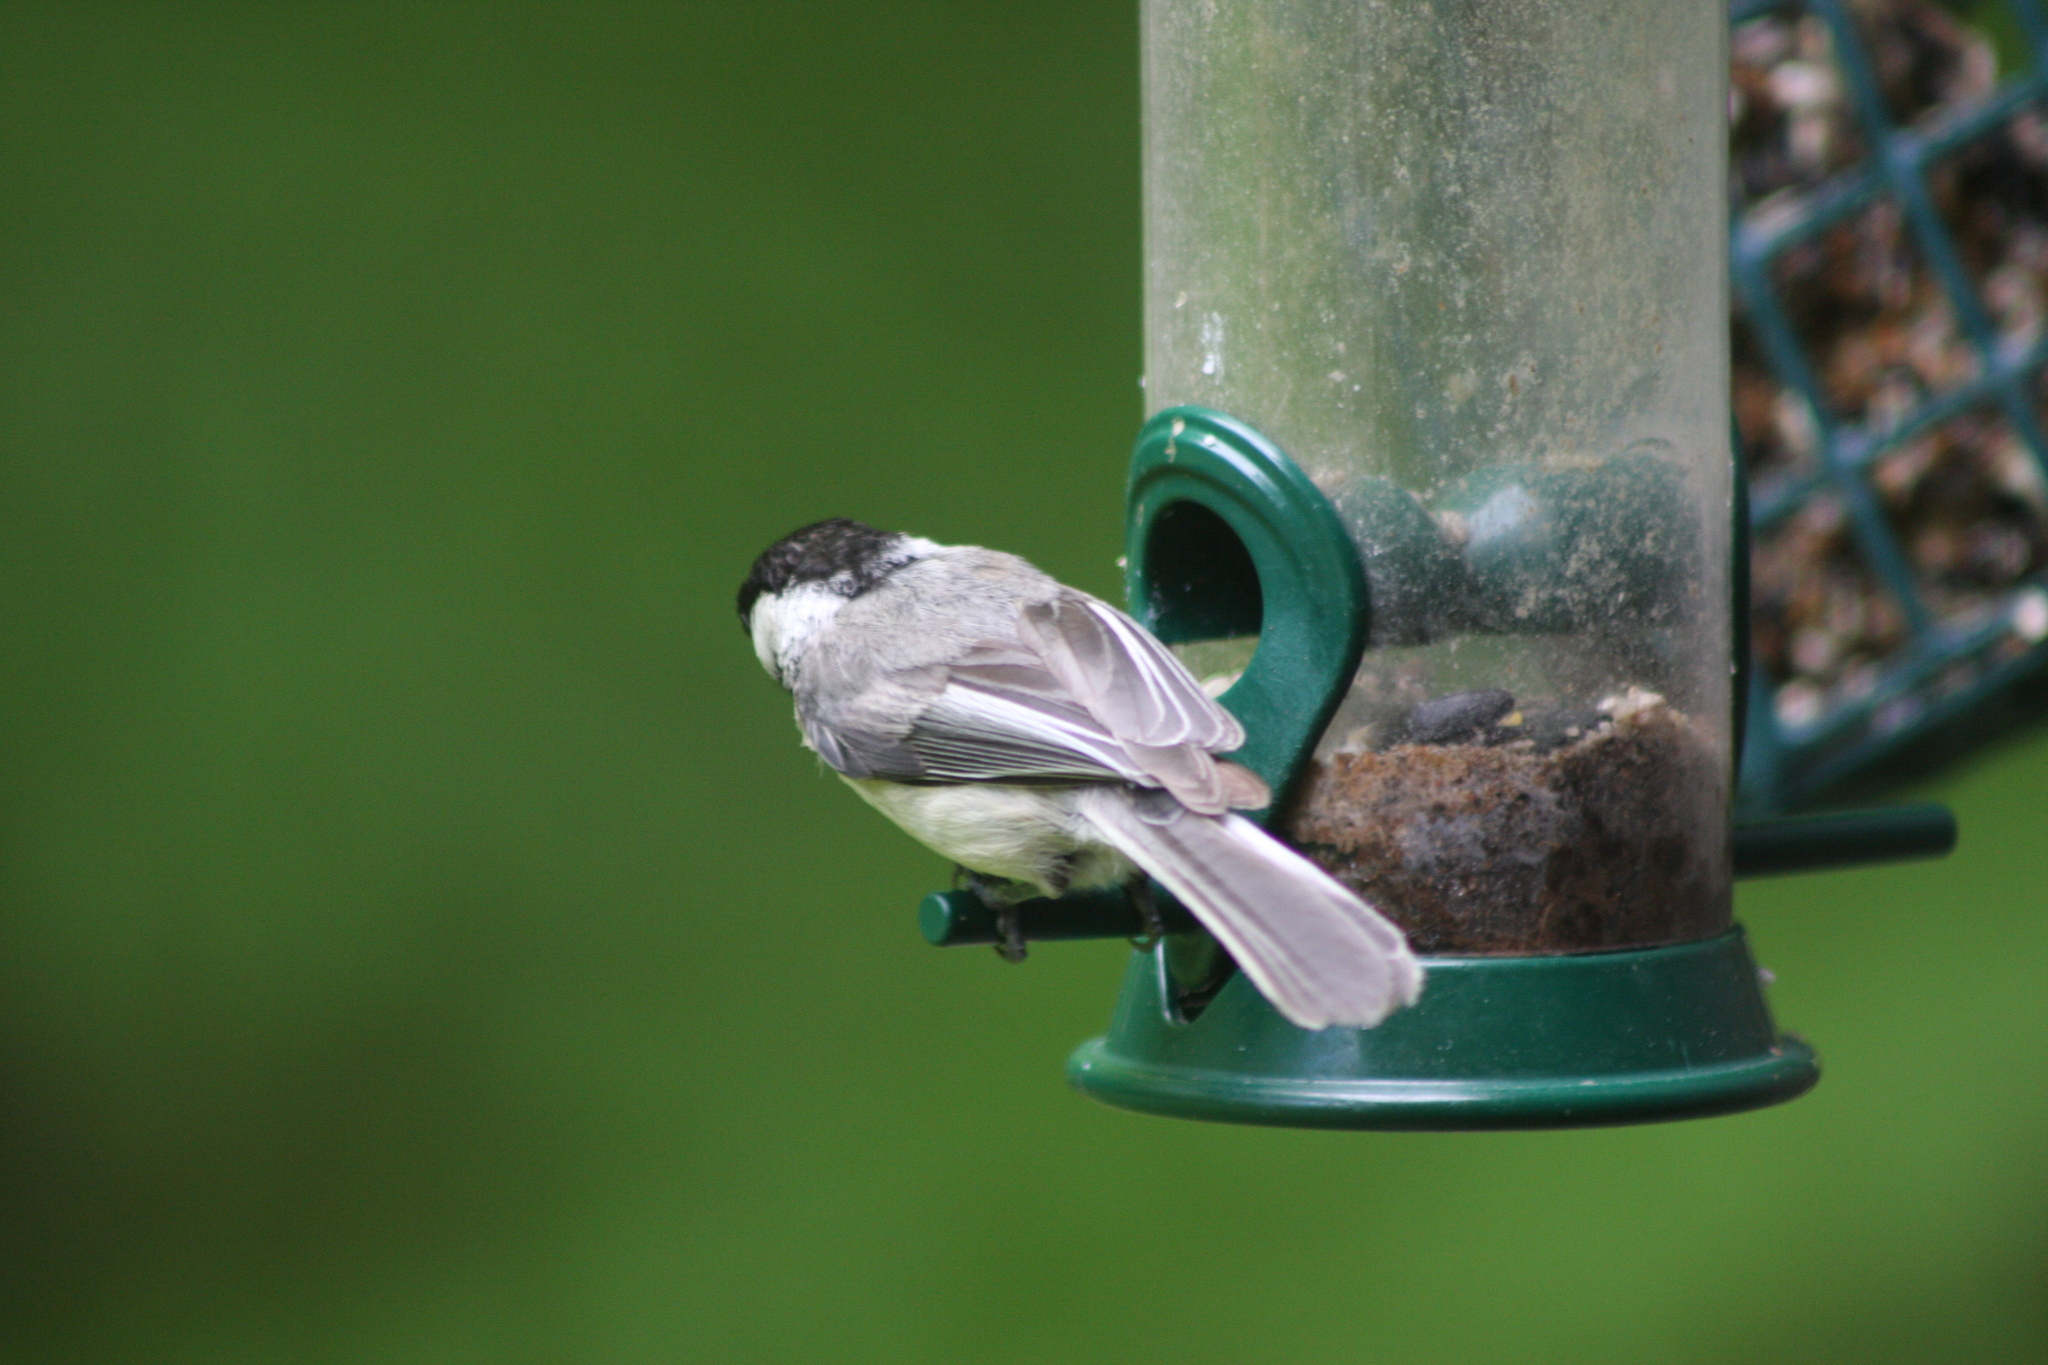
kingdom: Animalia
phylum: Chordata
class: Aves
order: Passeriformes
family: Paridae
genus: Poecile
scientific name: Poecile atricapillus
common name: Black-capped chickadee
